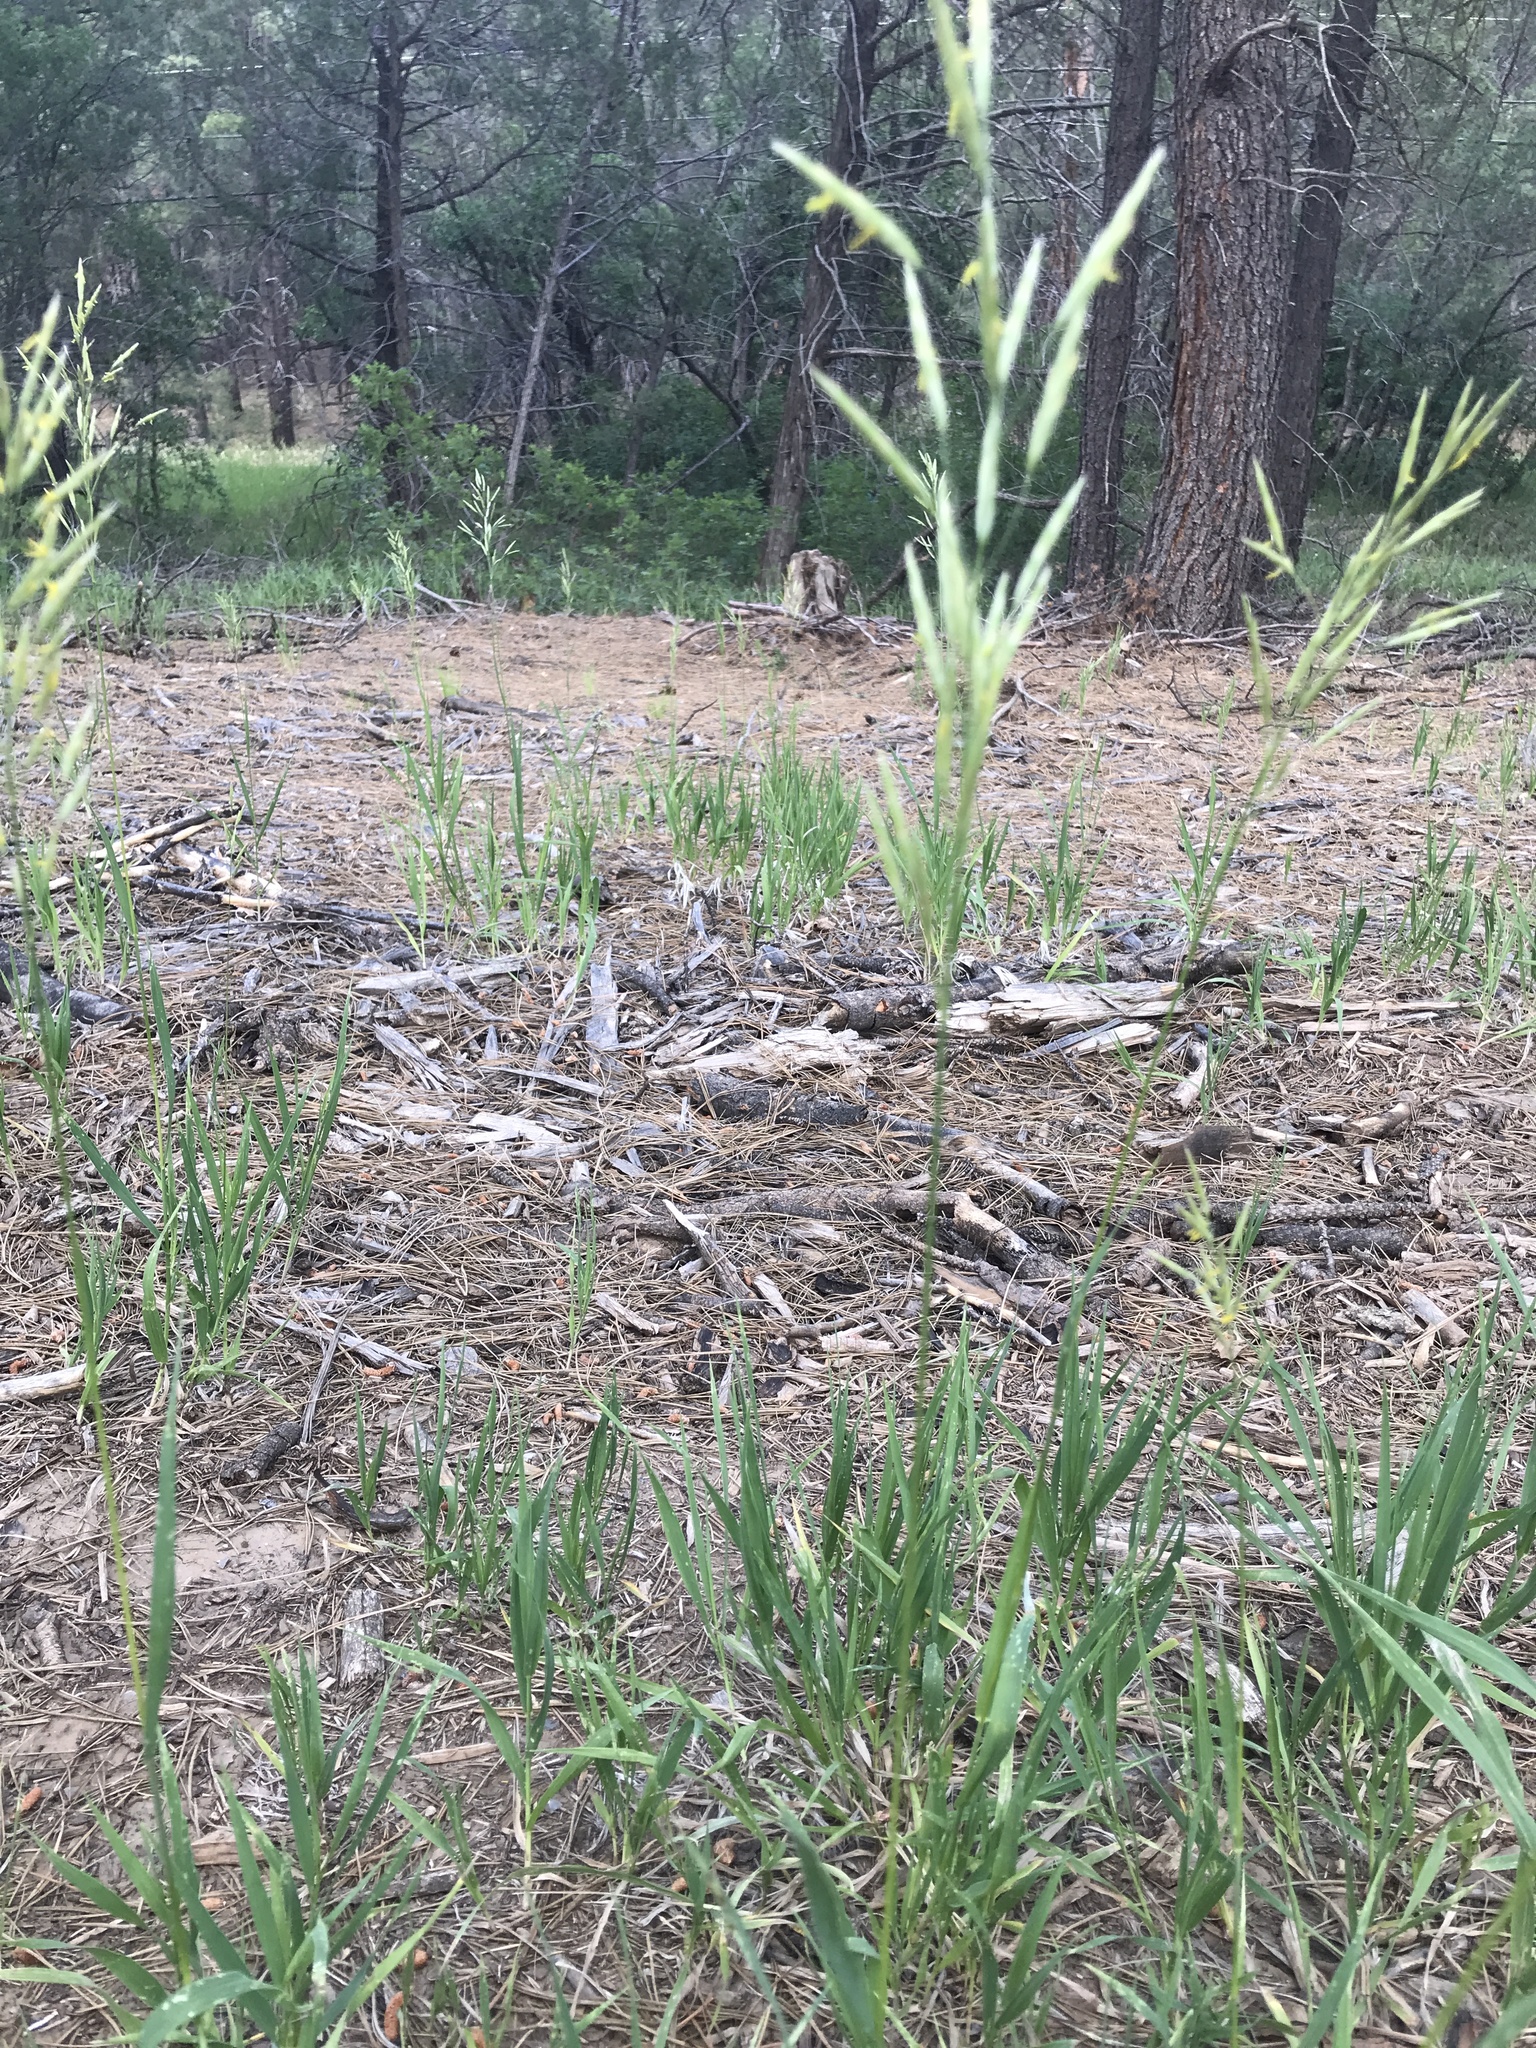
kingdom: Plantae
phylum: Tracheophyta
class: Liliopsida
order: Poales
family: Poaceae
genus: Bromus
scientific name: Bromus inermis
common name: Smooth brome
